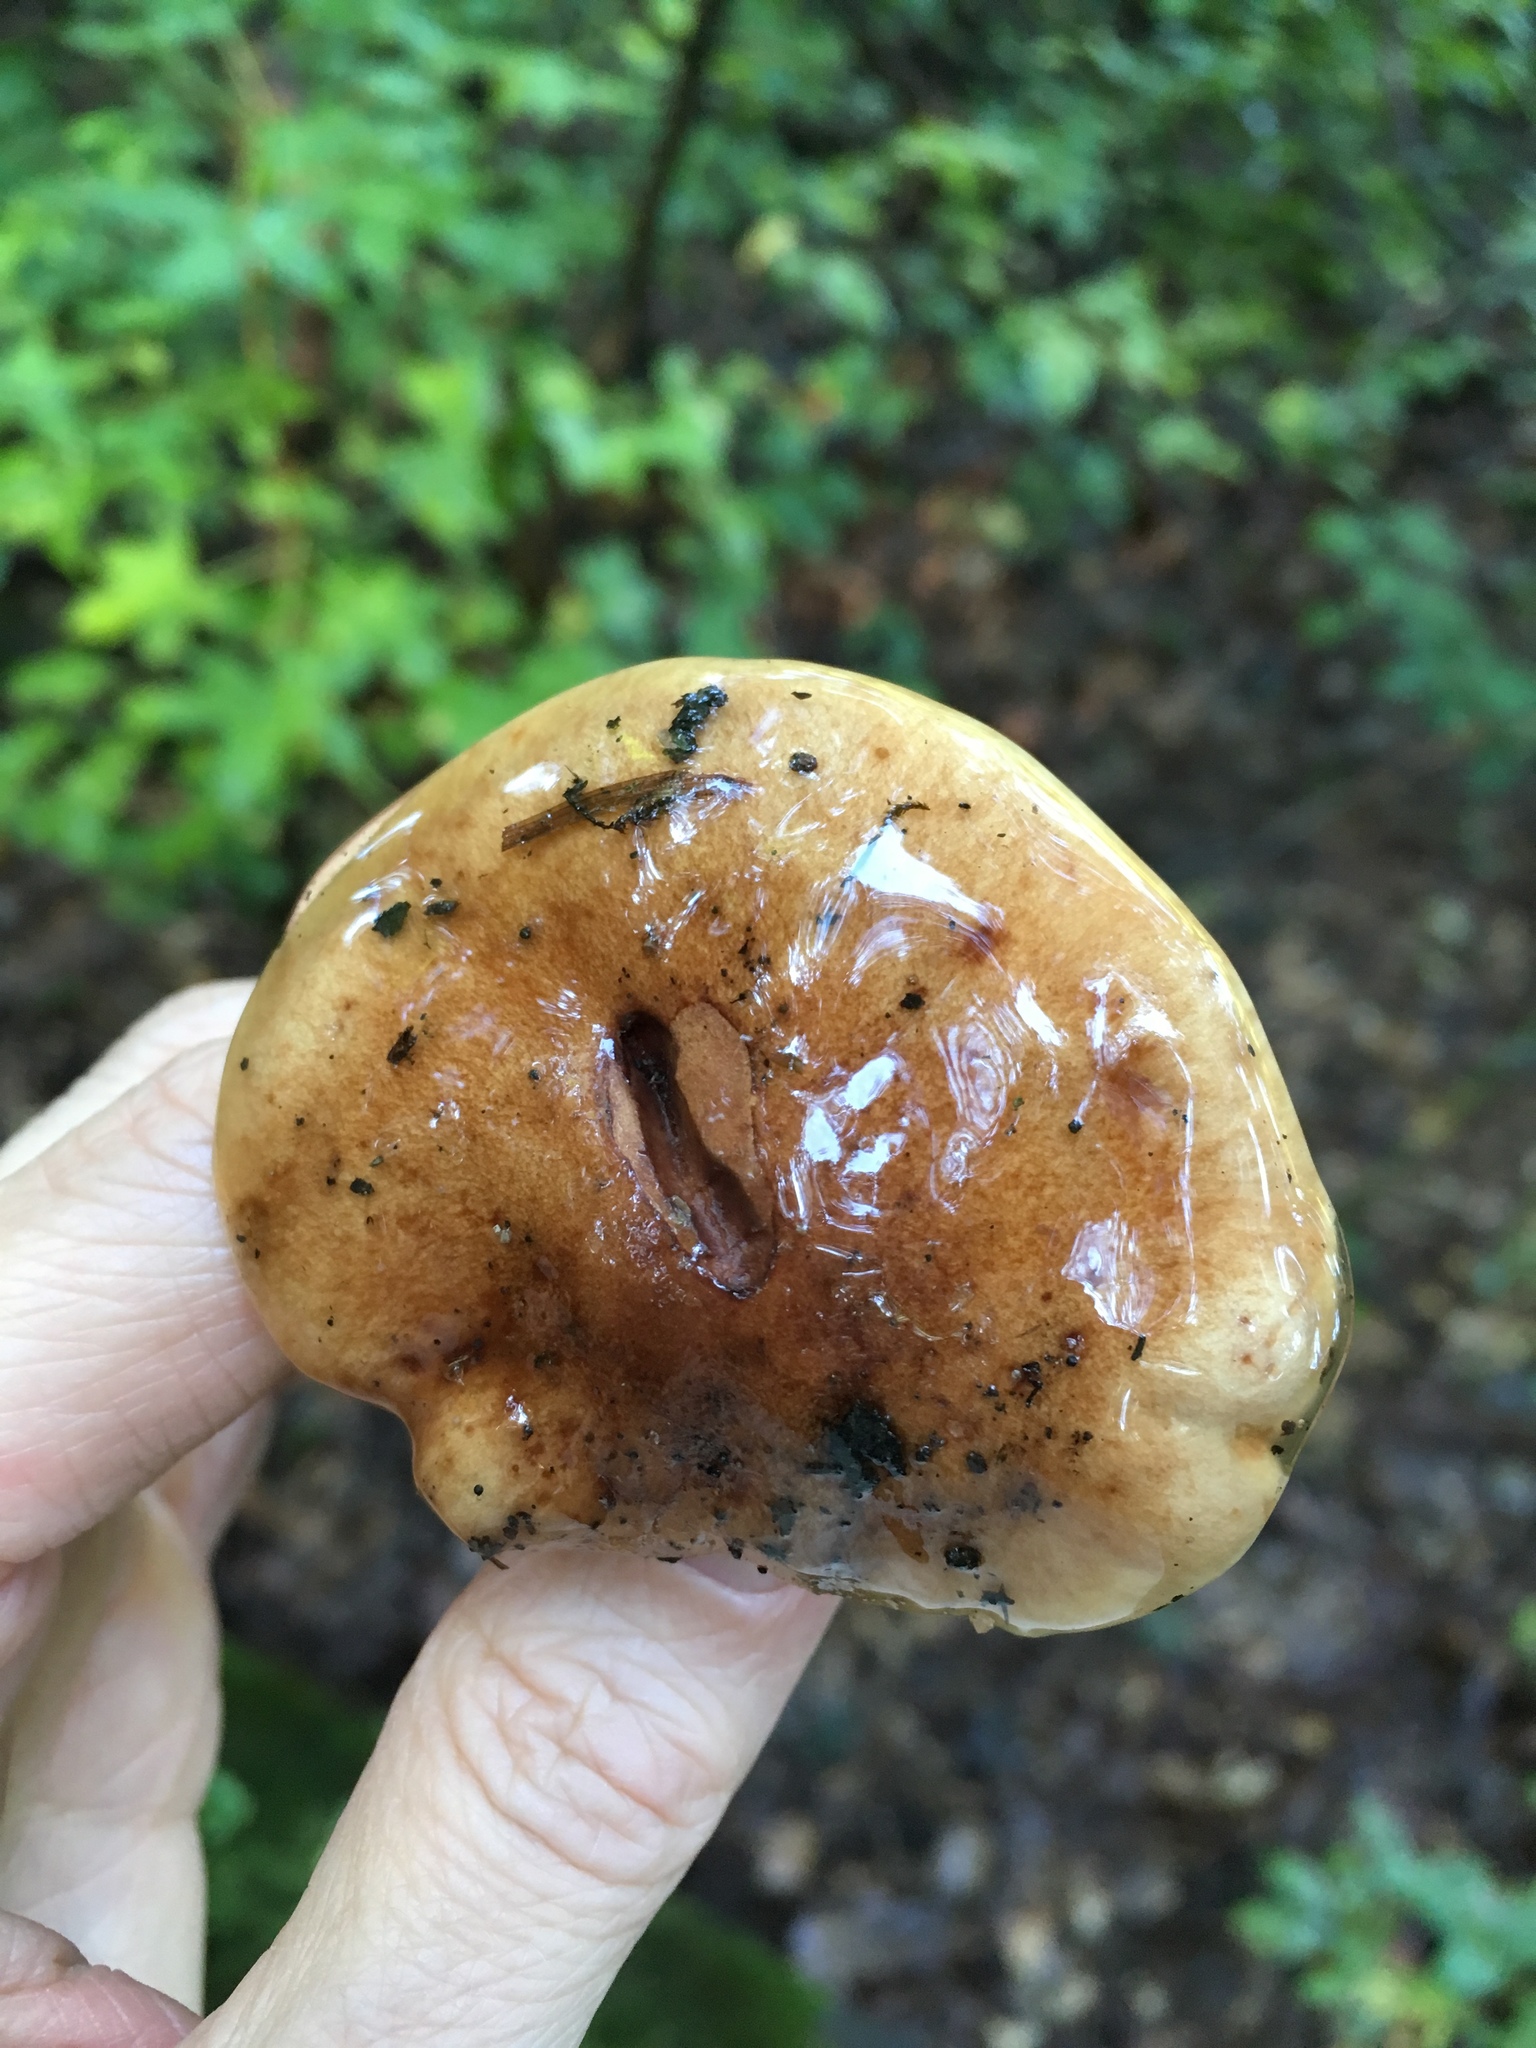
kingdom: Fungi
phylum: Basidiomycota
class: Agaricomycetes
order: Agaricales
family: Tricholomataceae
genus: Tricholoma
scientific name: Tricholoma fulvum
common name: Birch knight
